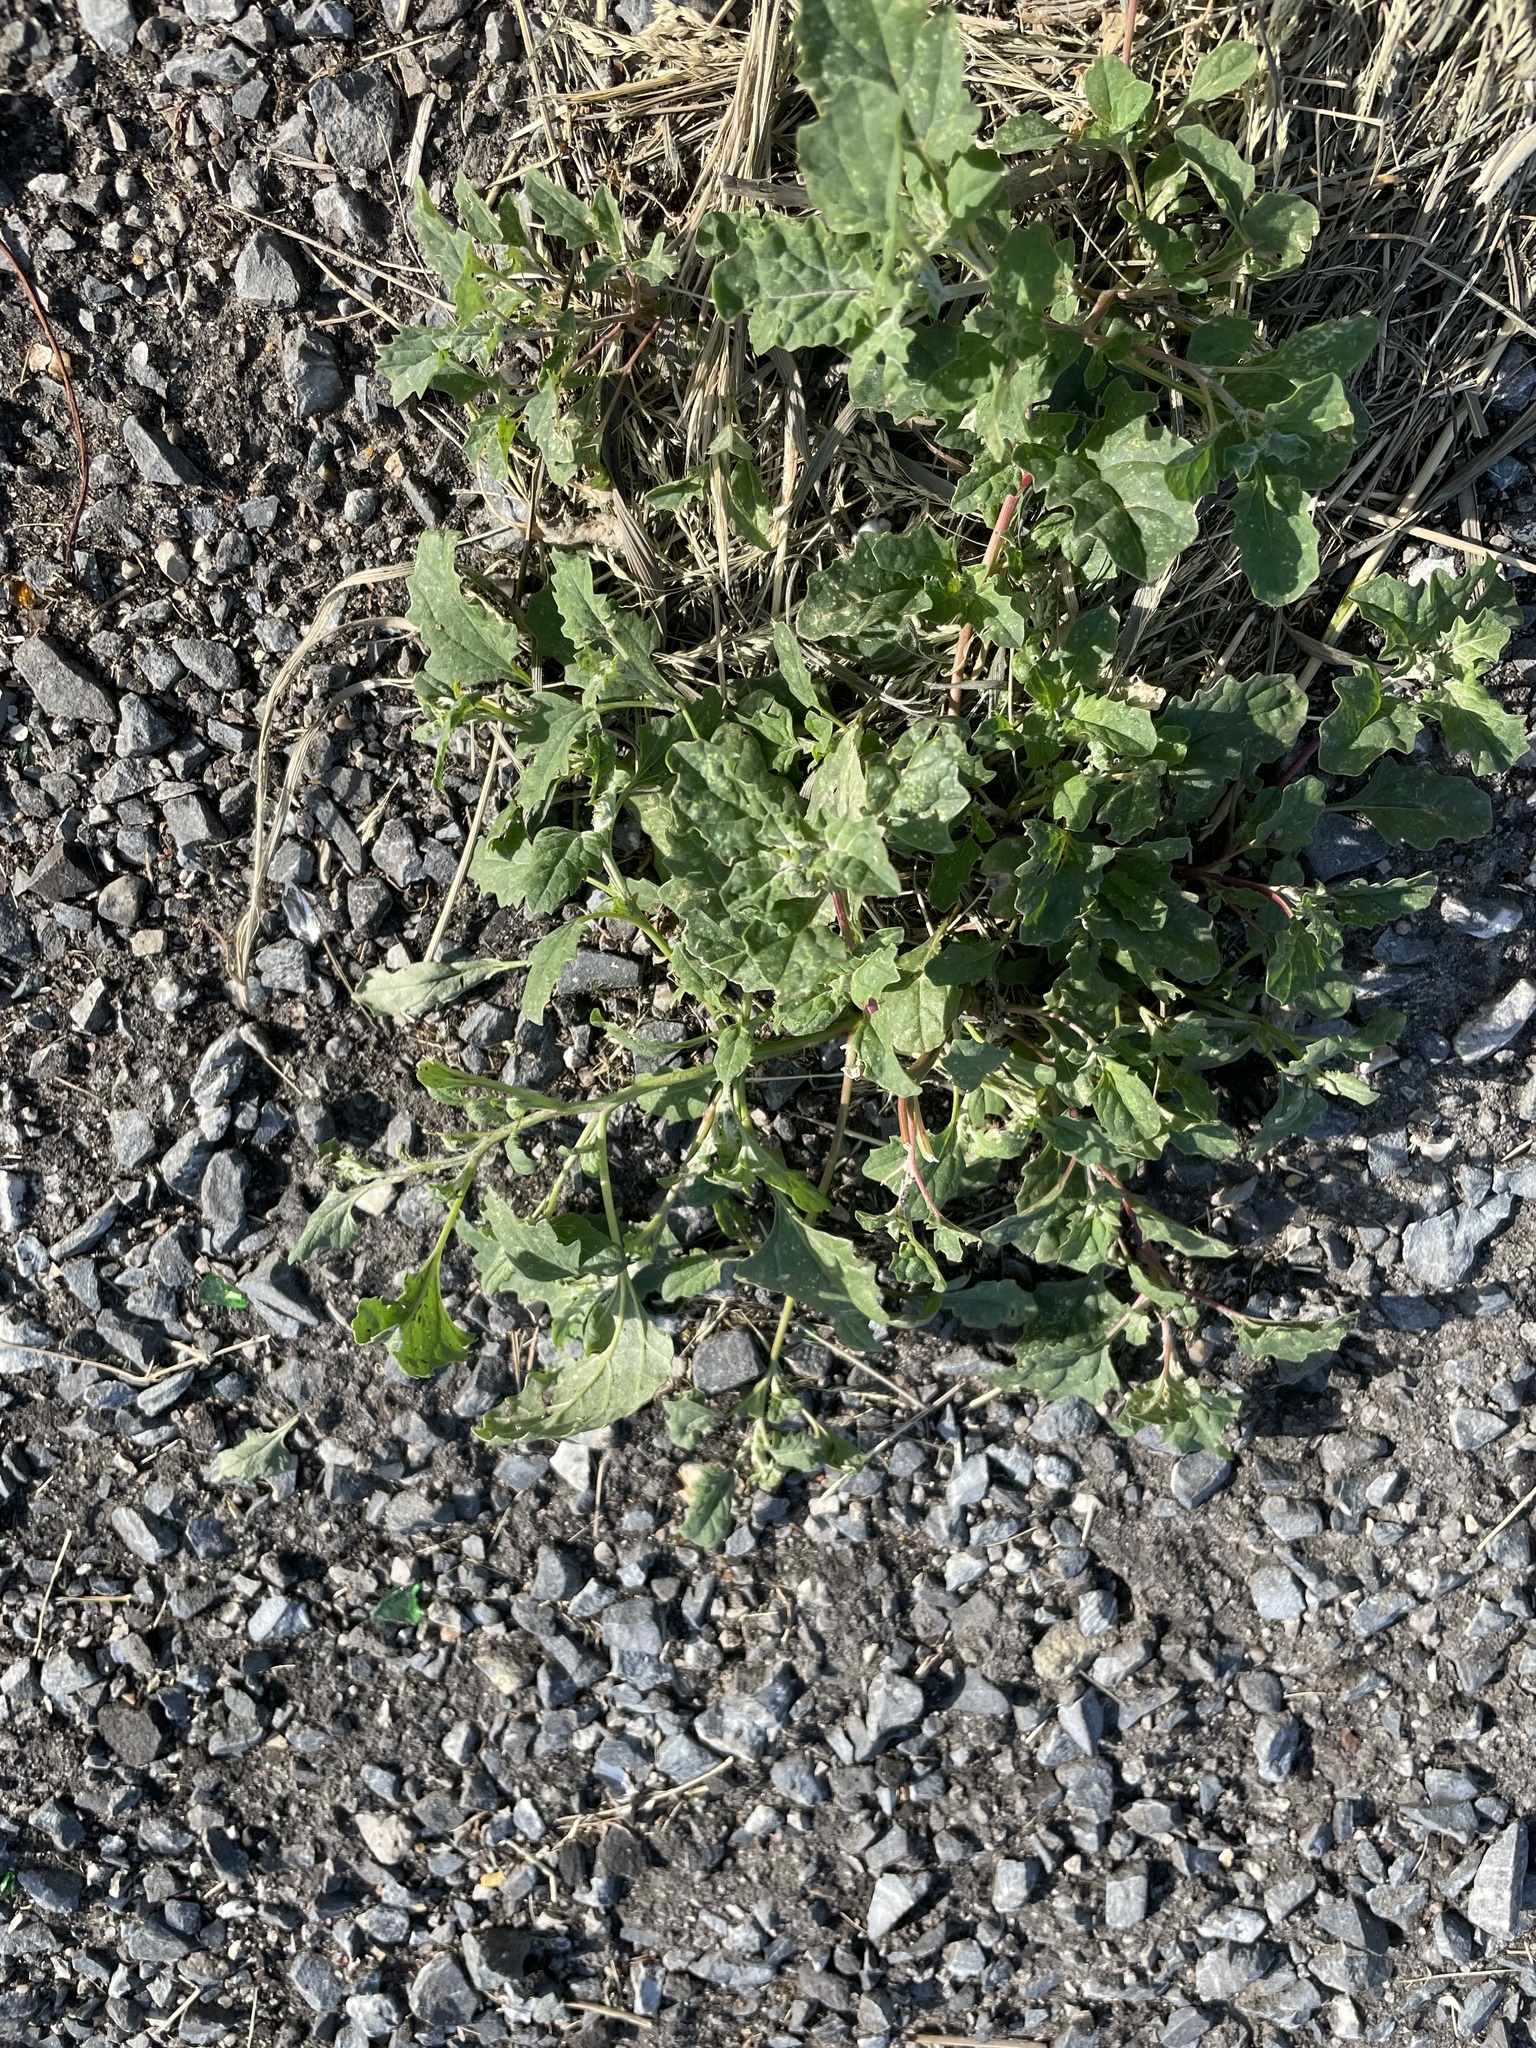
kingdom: Plantae
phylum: Tracheophyta
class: Magnoliopsida
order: Caryophyllales
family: Amaranthaceae
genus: Atriplex
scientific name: Atriplex tatarica
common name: Tatarian orache
